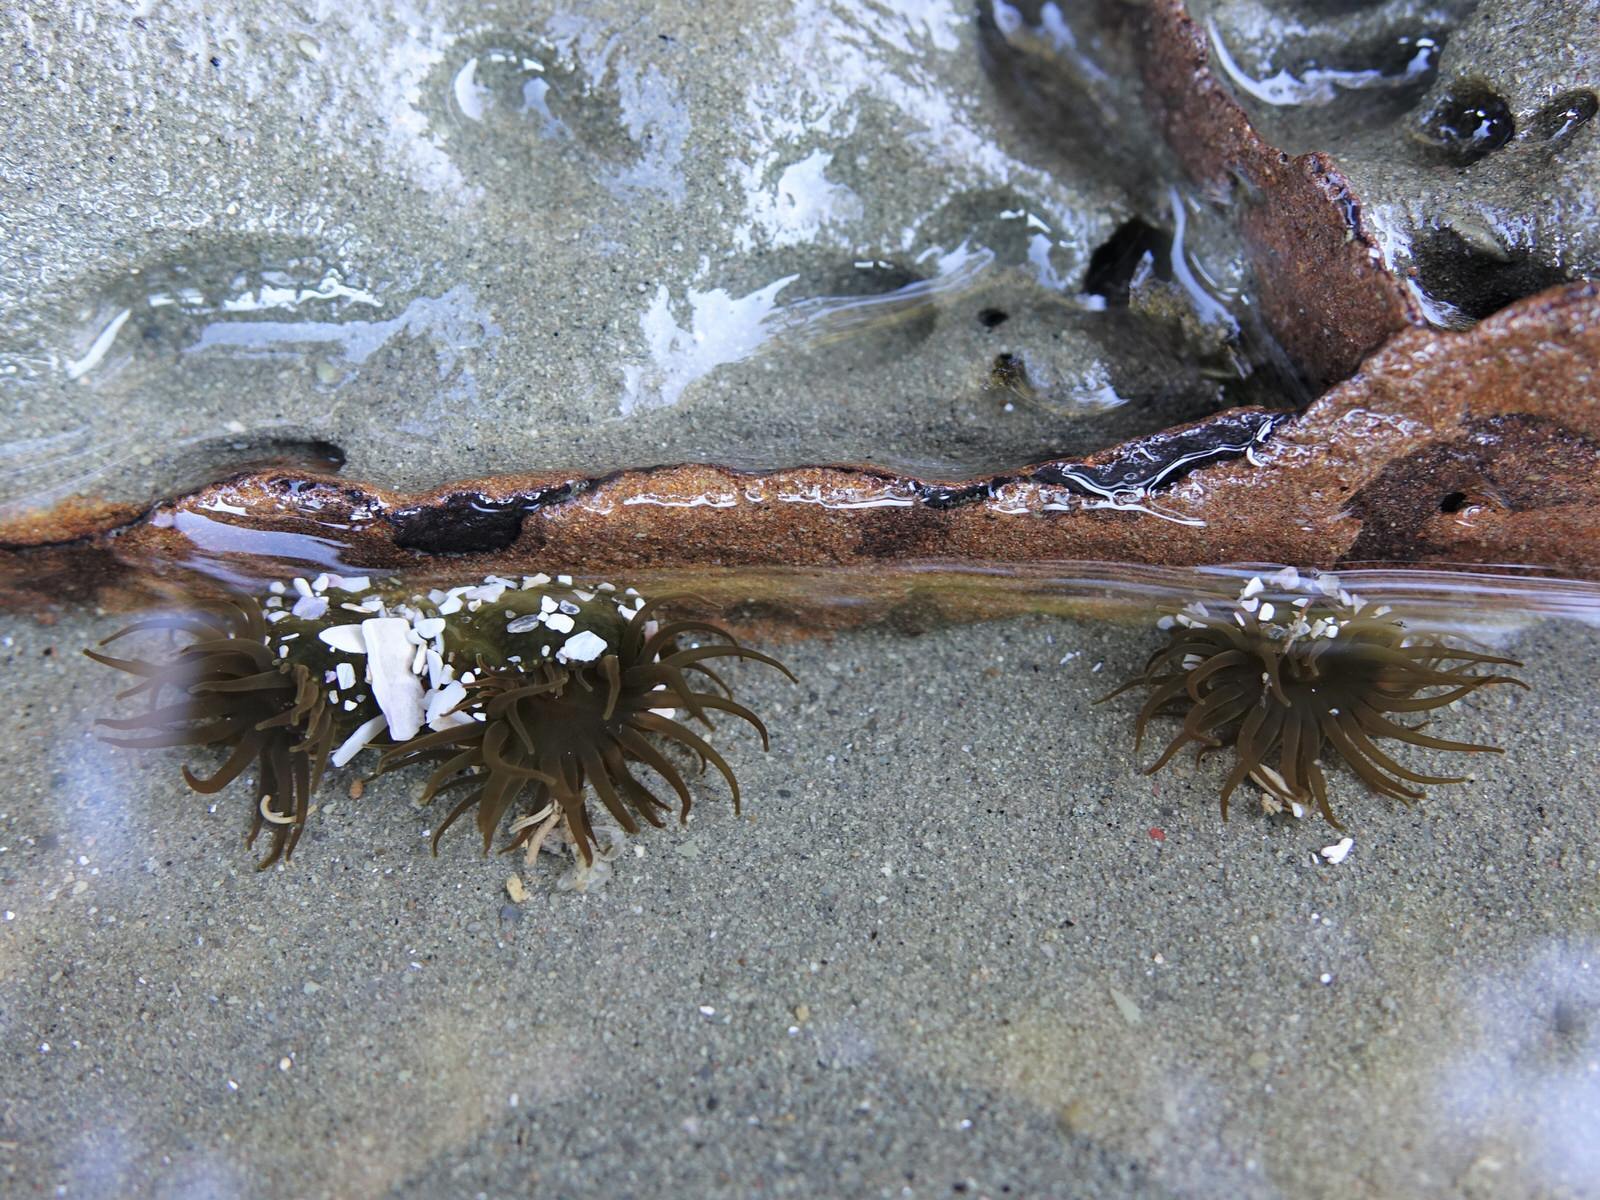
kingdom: Animalia
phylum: Cnidaria
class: Anthozoa
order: Actiniaria
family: Actiniidae
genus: Isactinia
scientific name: Isactinia olivacea
